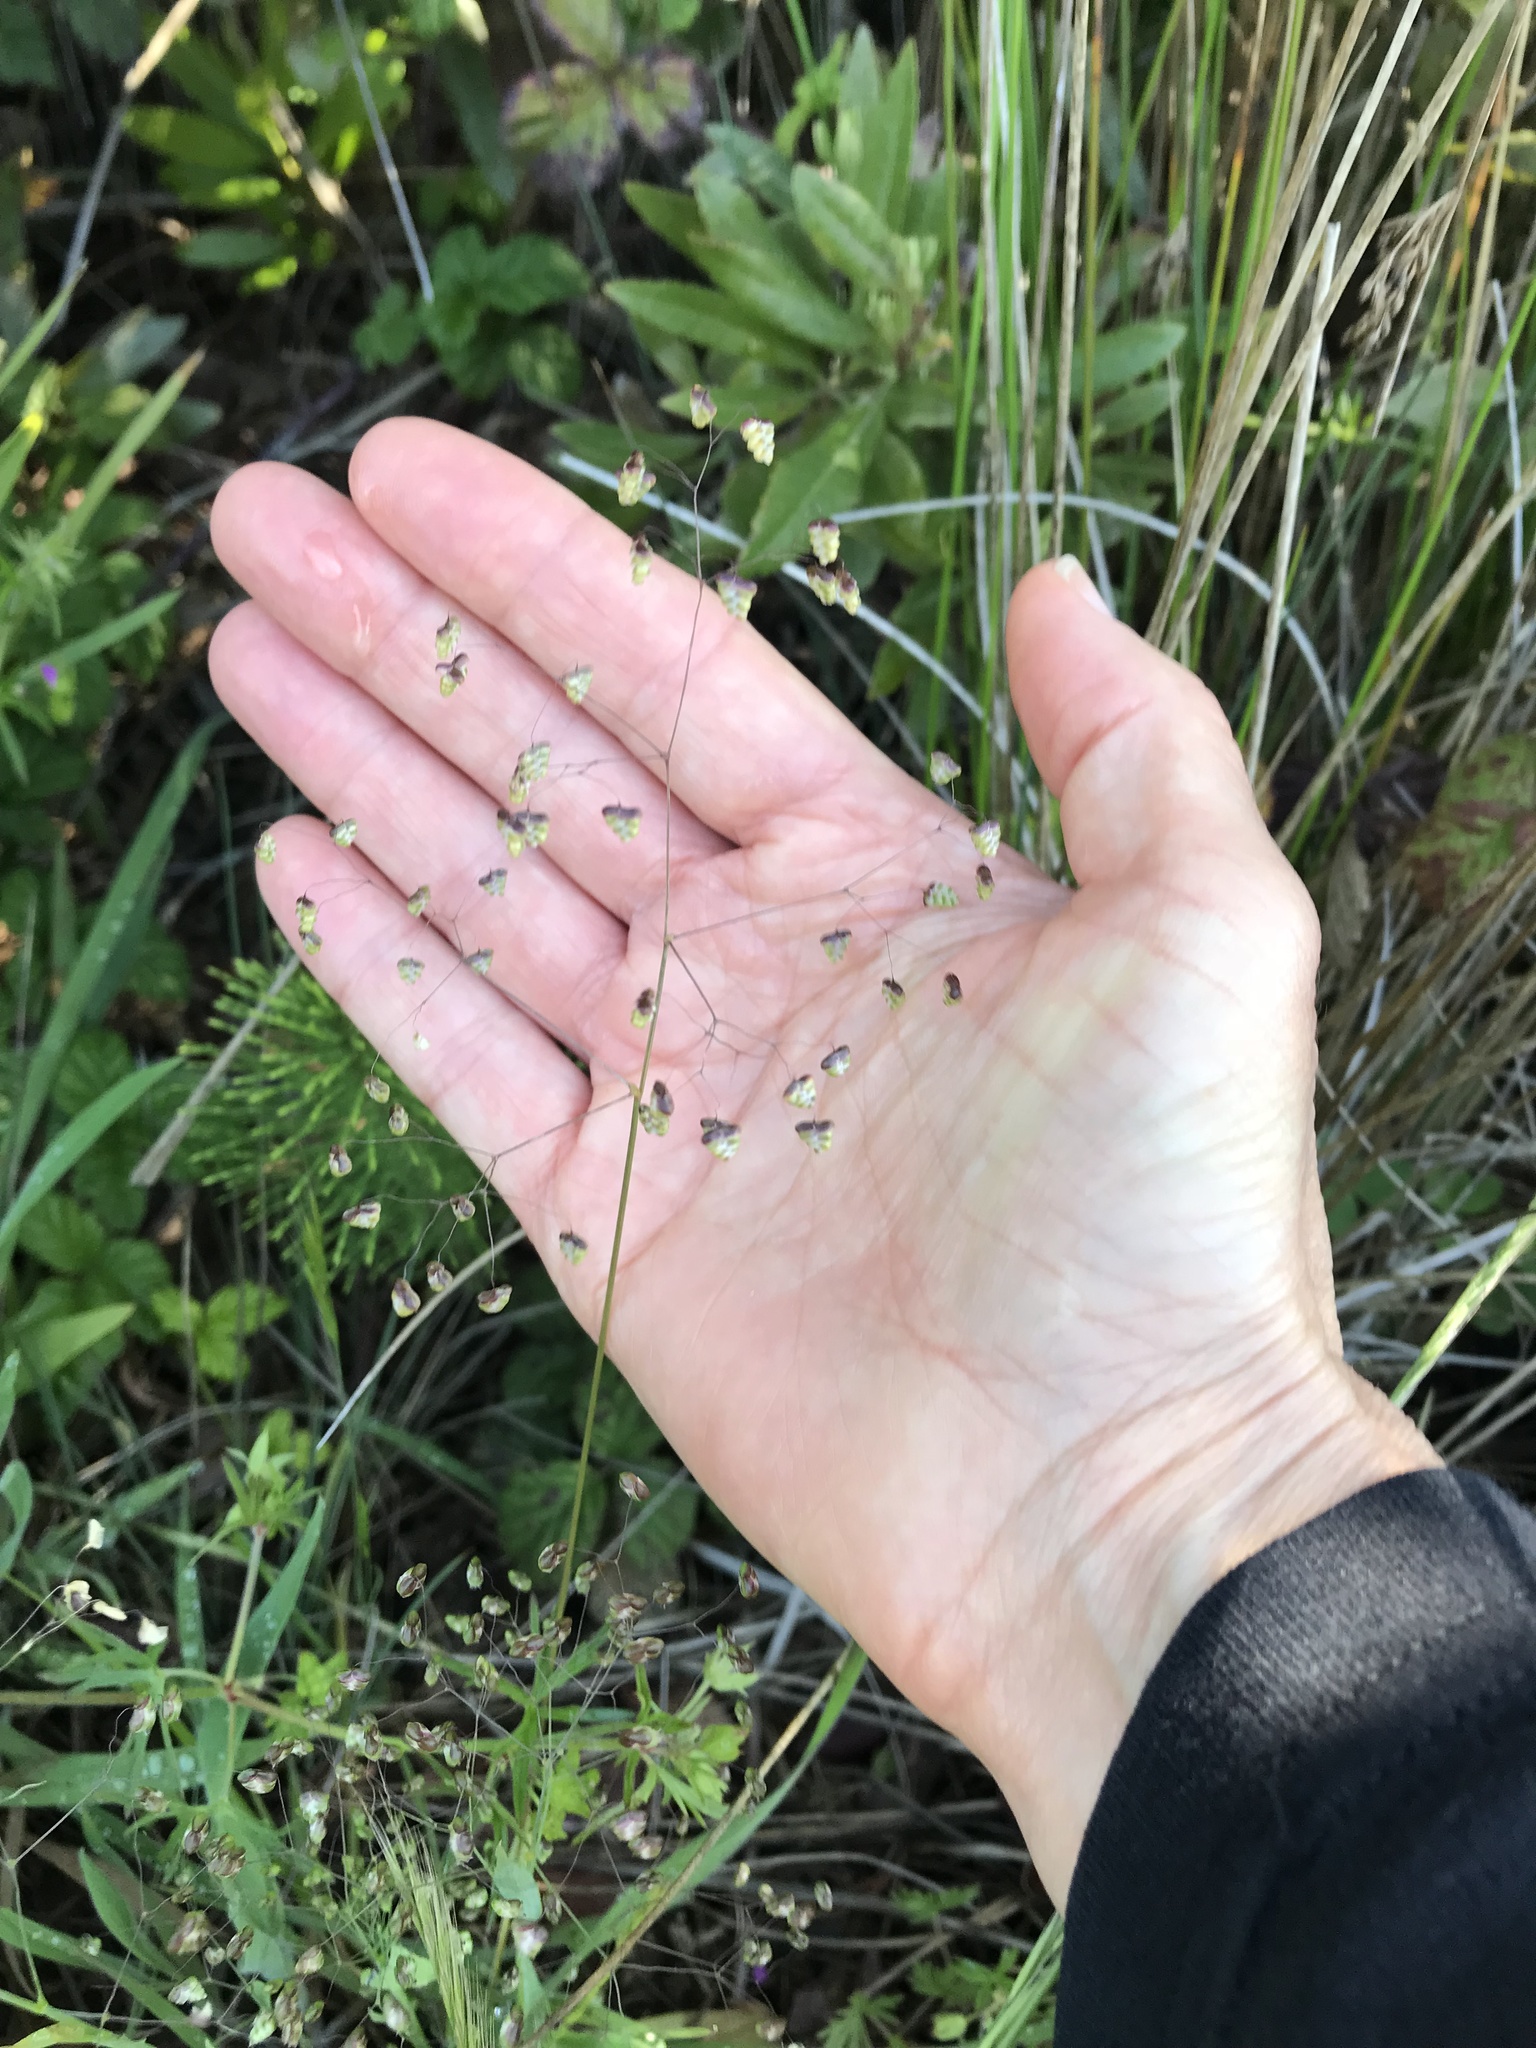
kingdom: Plantae
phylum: Tracheophyta
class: Liliopsida
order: Poales
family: Poaceae
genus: Briza
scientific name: Briza minor
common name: Lesser quaking-grass
